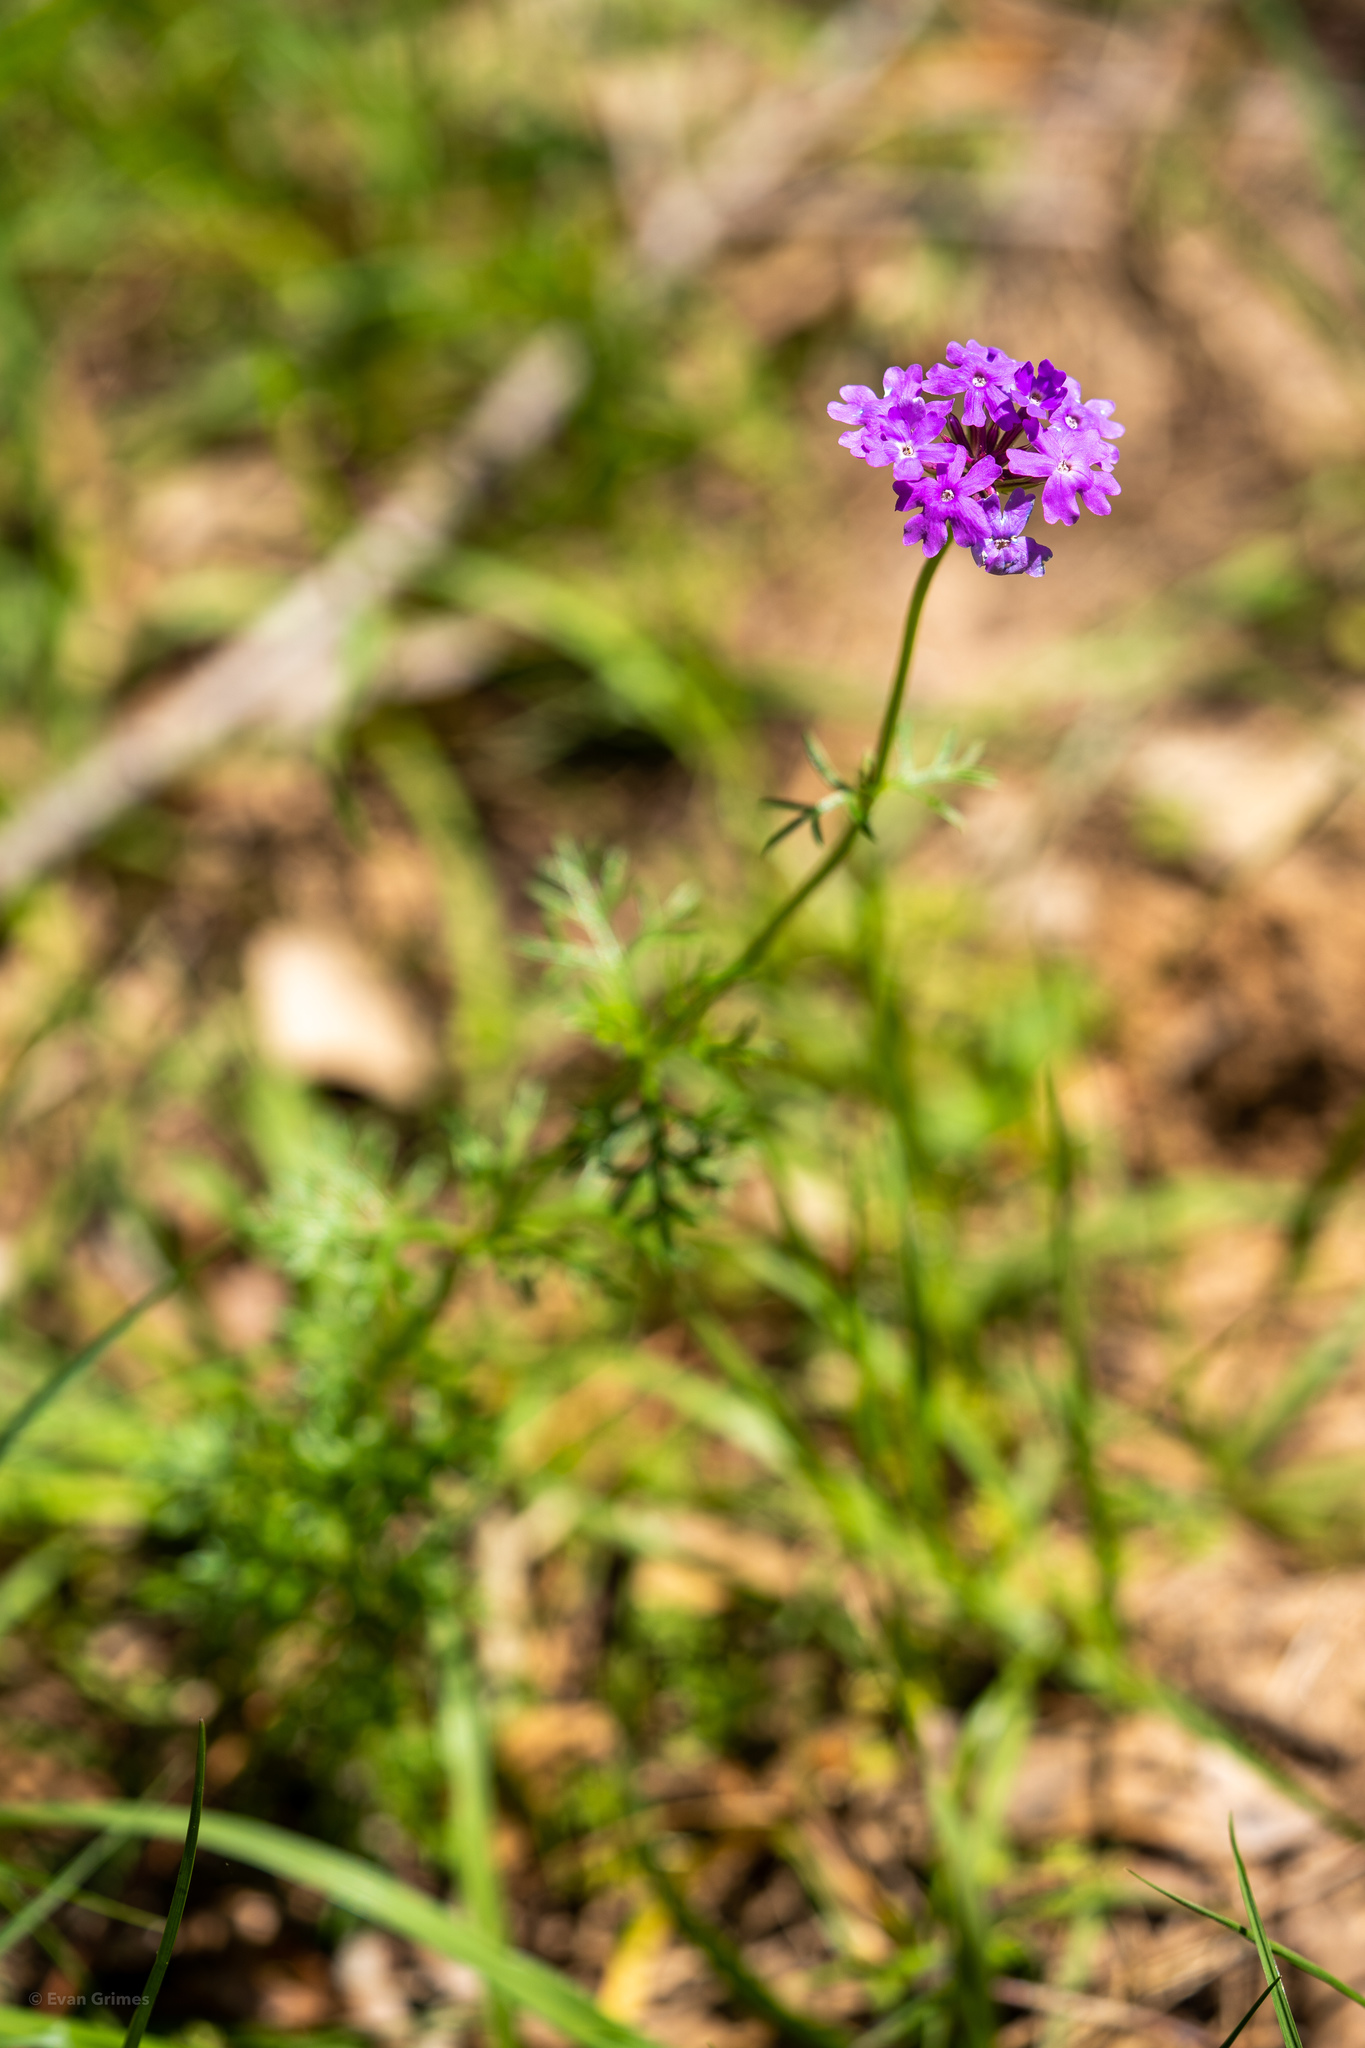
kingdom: Plantae
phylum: Tracheophyta
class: Magnoliopsida
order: Lamiales
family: Verbenaceae
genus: Verbena
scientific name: Verbena aristigera
